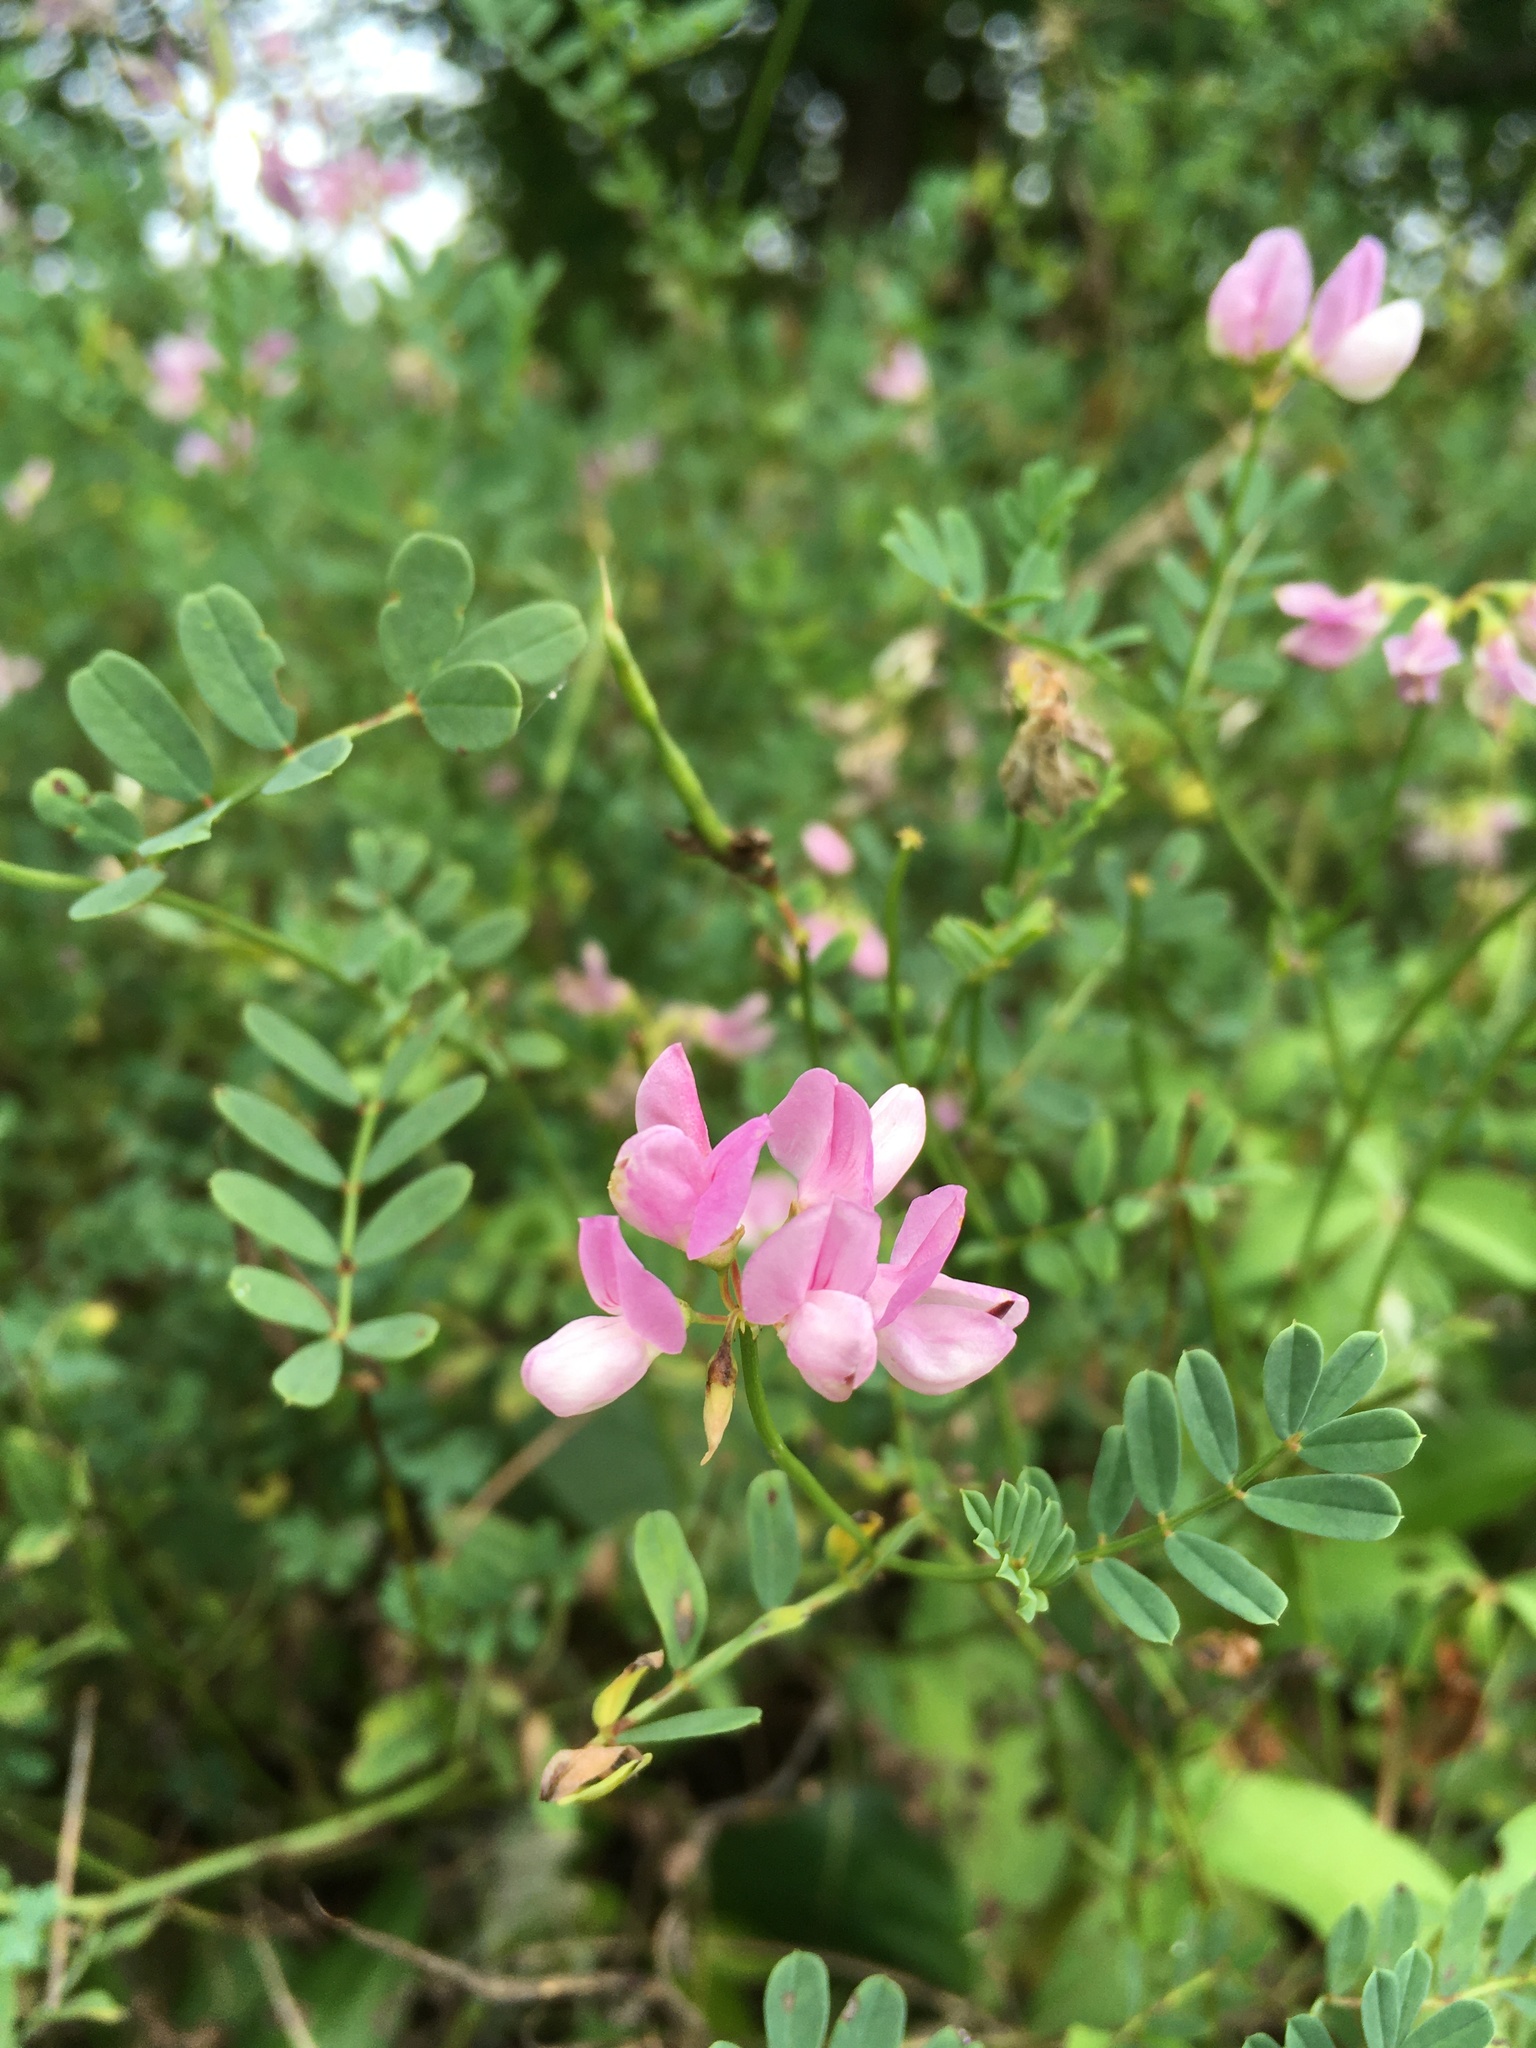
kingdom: Plantae
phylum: Tracheophyta
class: Magnoliopsida
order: Fabales
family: Fabaceae
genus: Coronilla
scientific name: Coronilla varia
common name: Crownvetch
